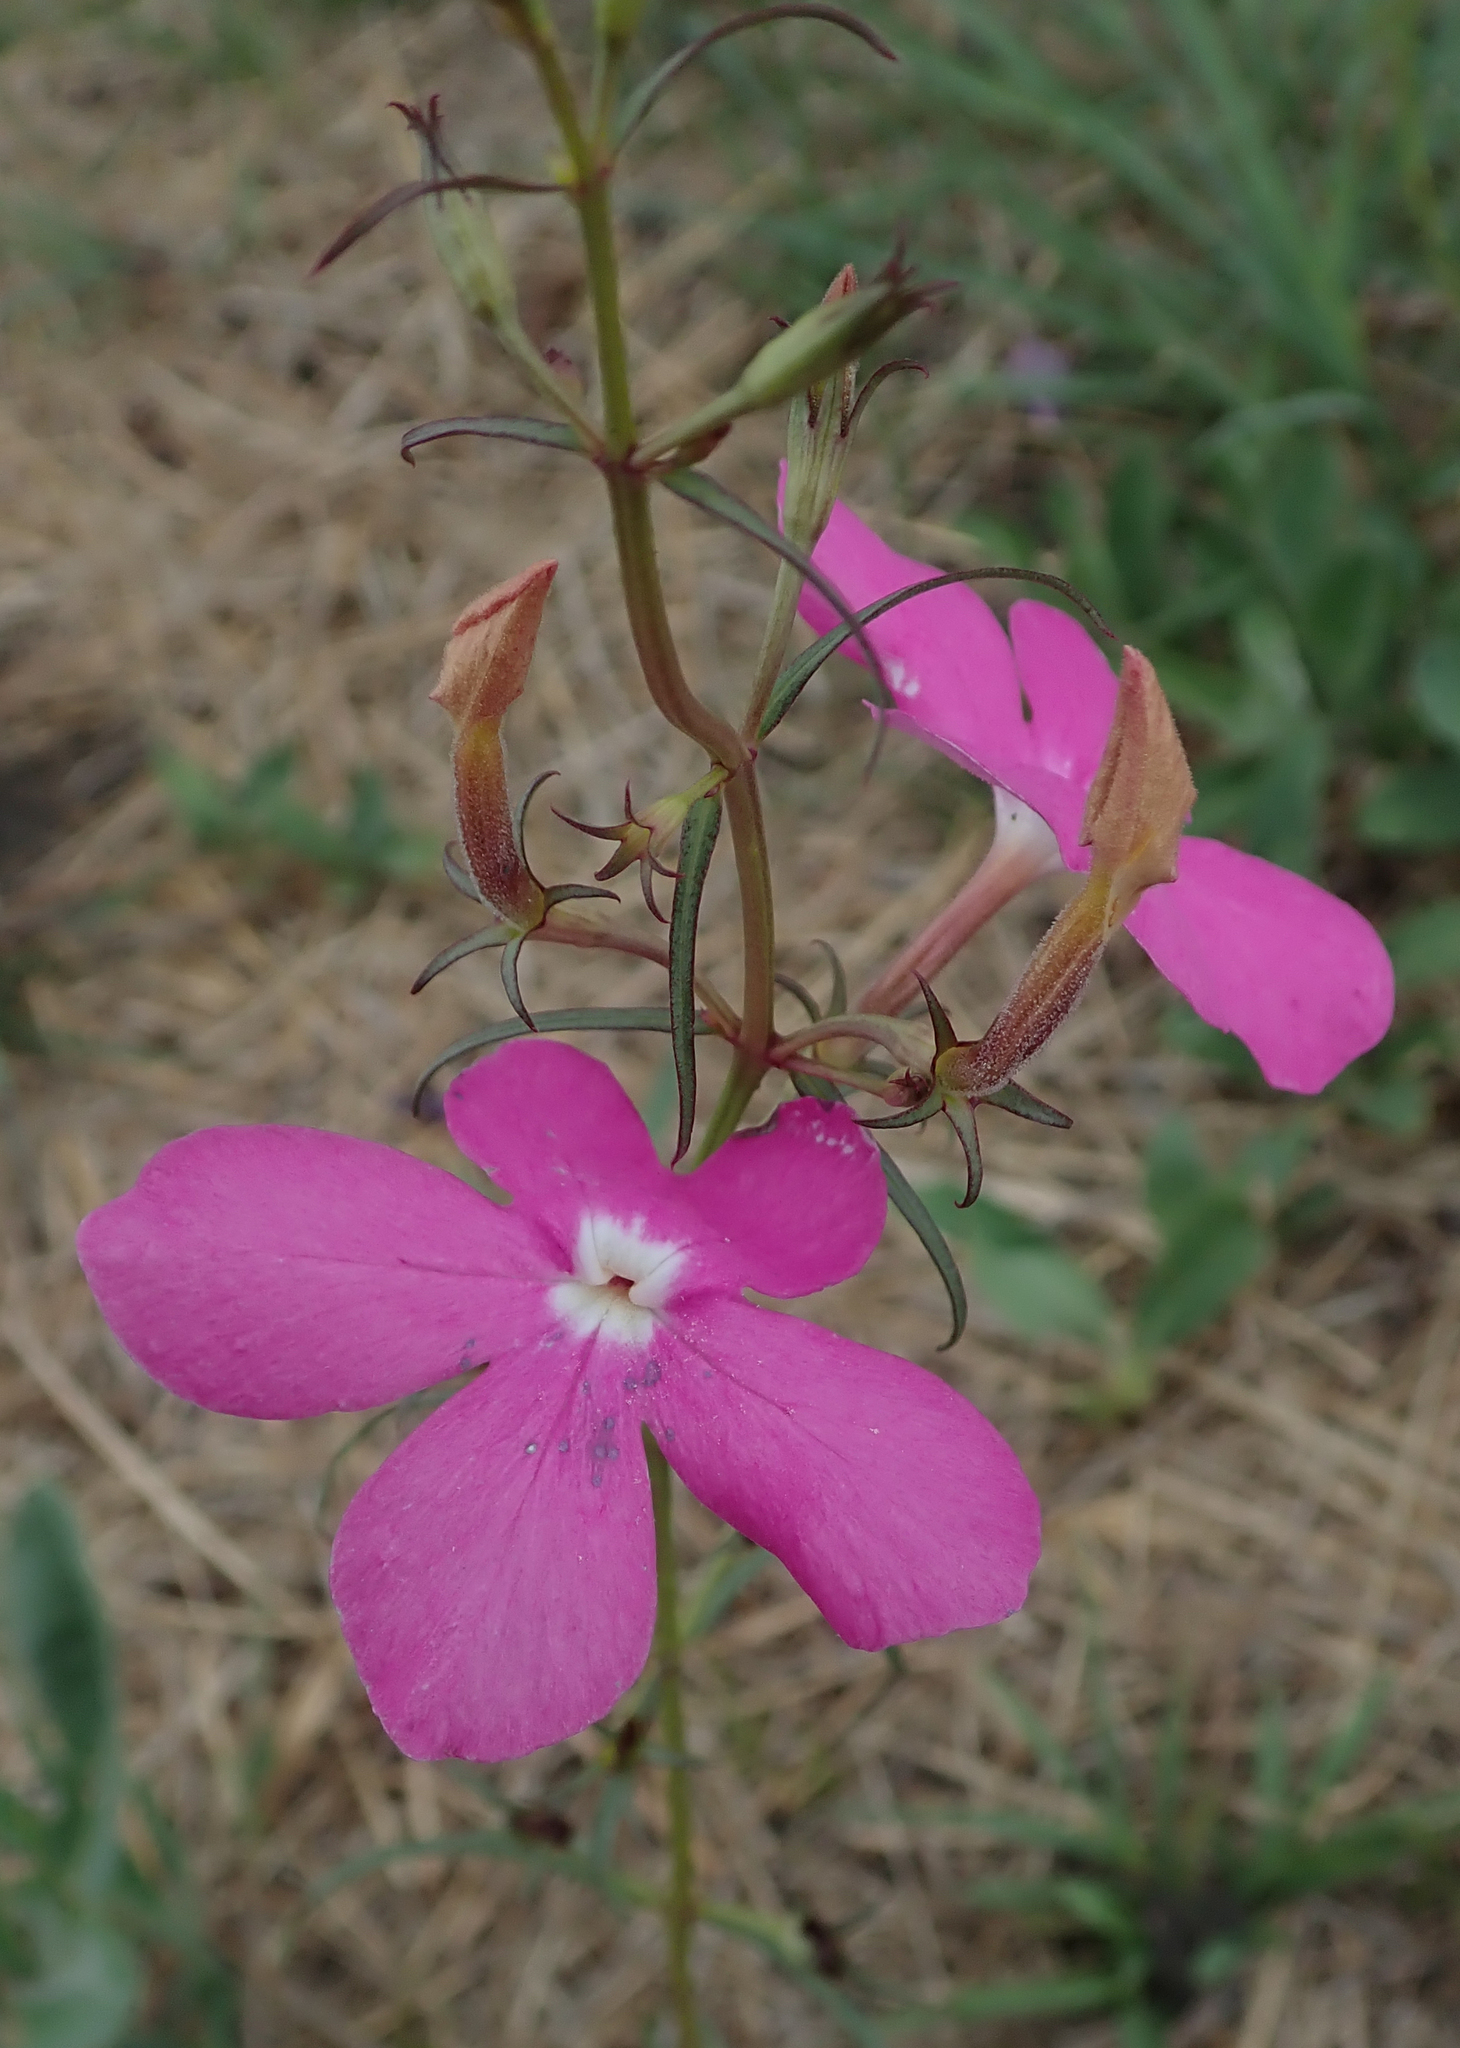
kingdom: Plantae
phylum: Tracheophyta
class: Magnoliopsida
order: Lamiales
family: Orobanchaceae
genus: Cycnium
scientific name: Cycnium tubulosum
